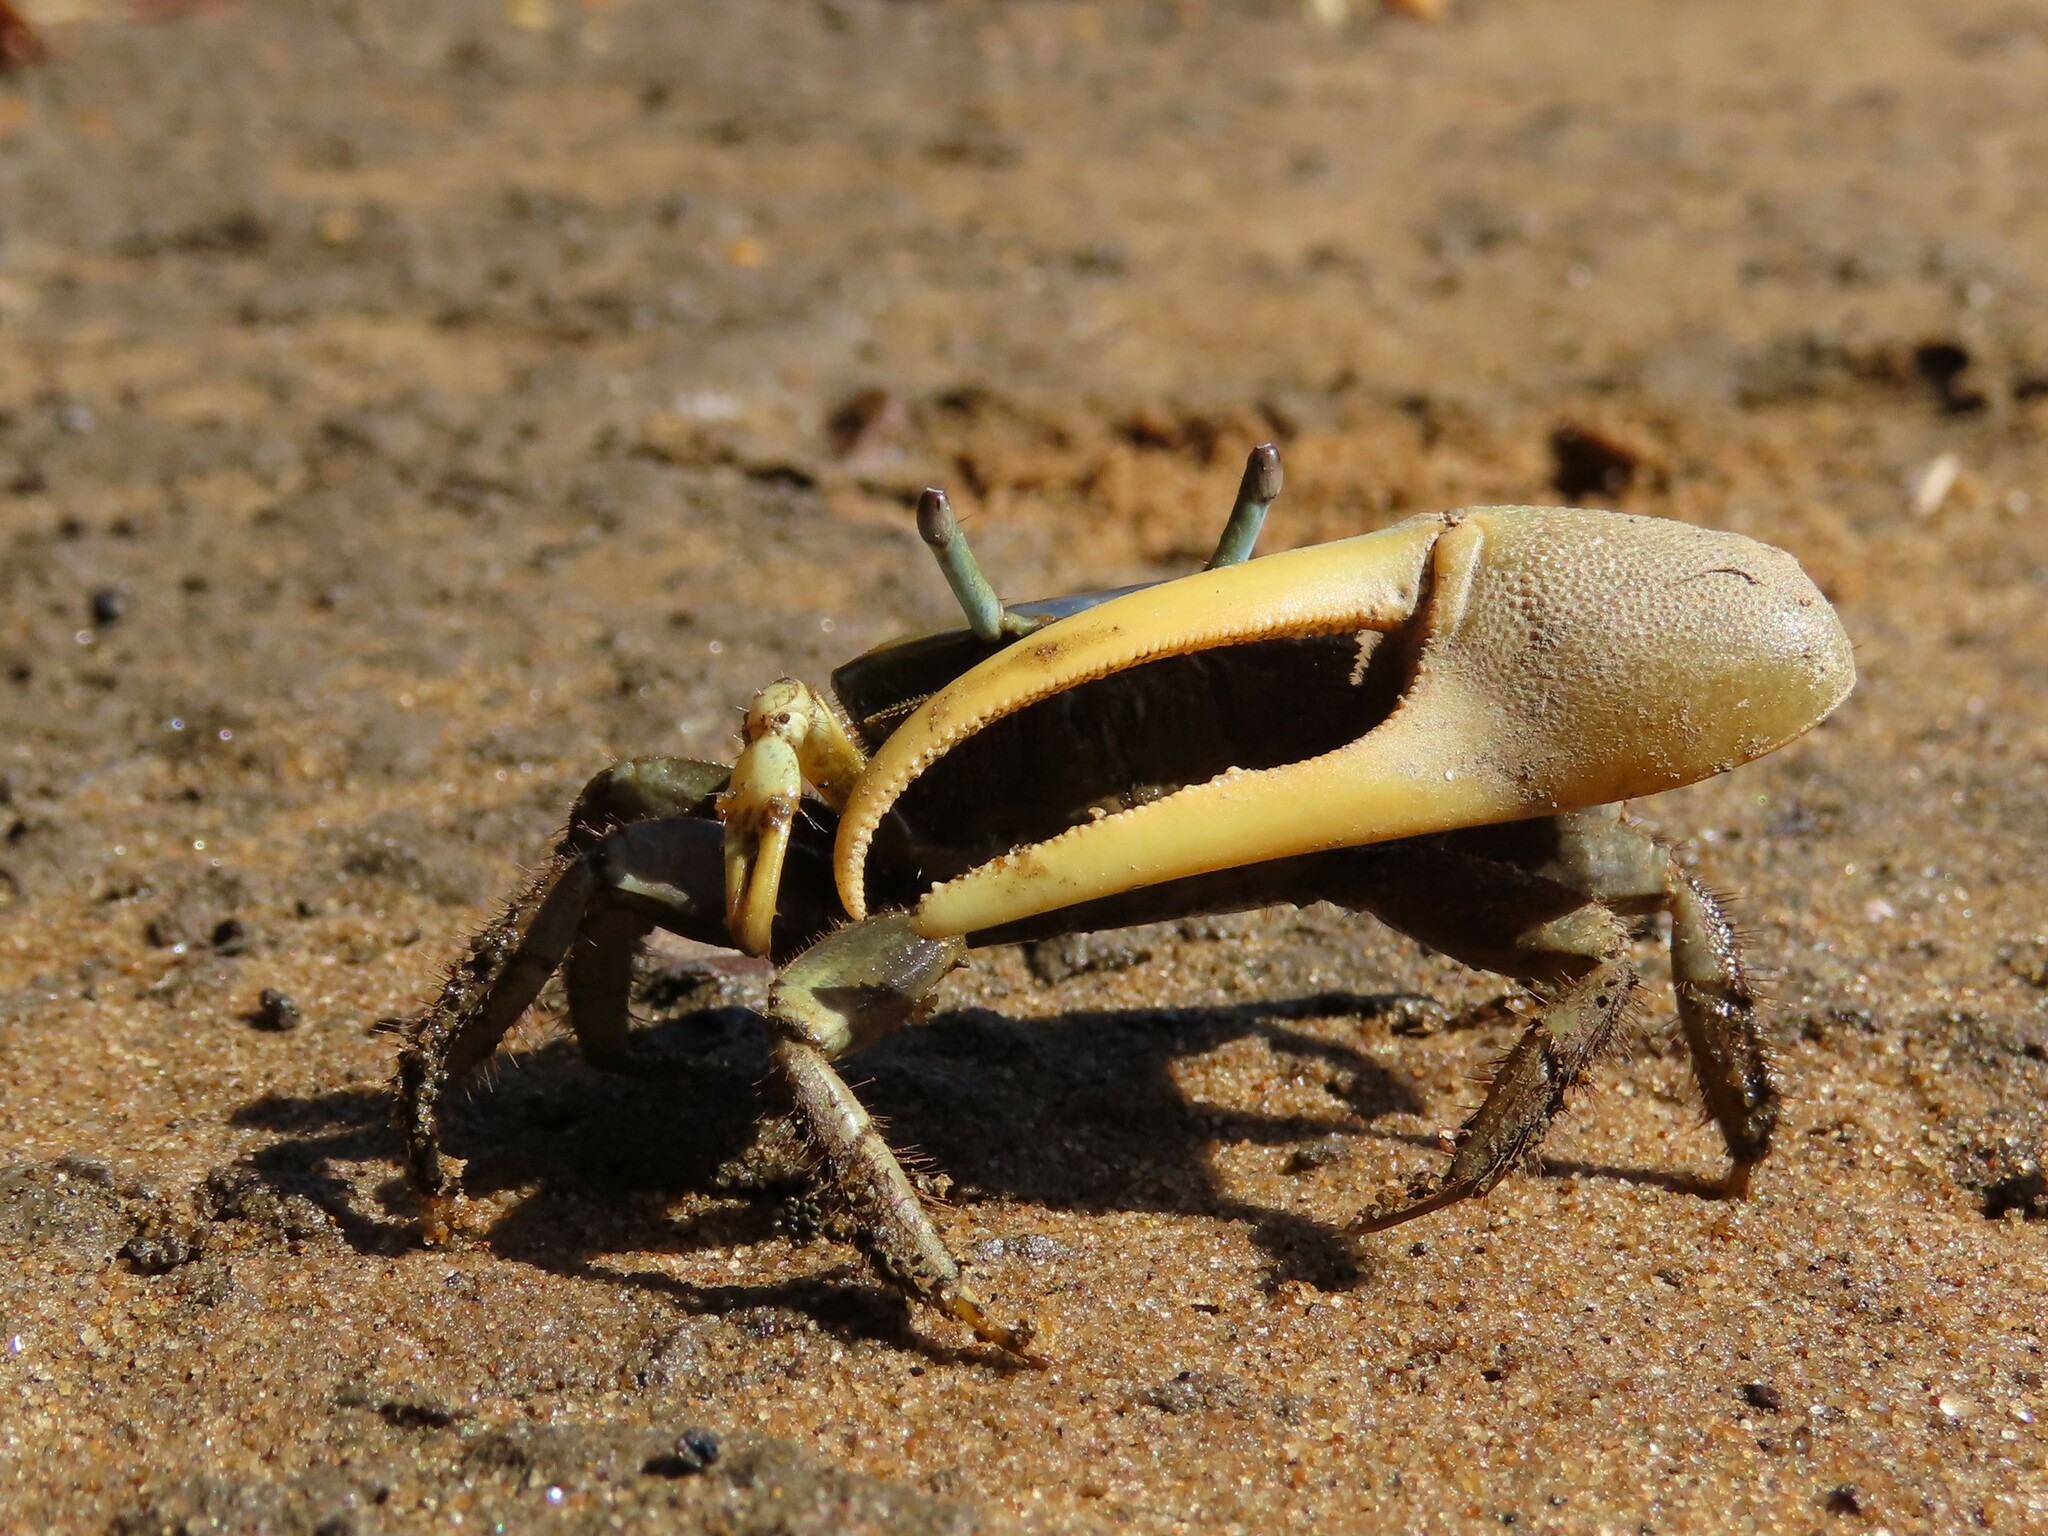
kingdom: Animalia
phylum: Arthropoda
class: Malacostraca
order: Decapoda
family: Ocypodidae
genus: Minuca
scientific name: Minuca pugnax
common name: Mud fiddler crab
